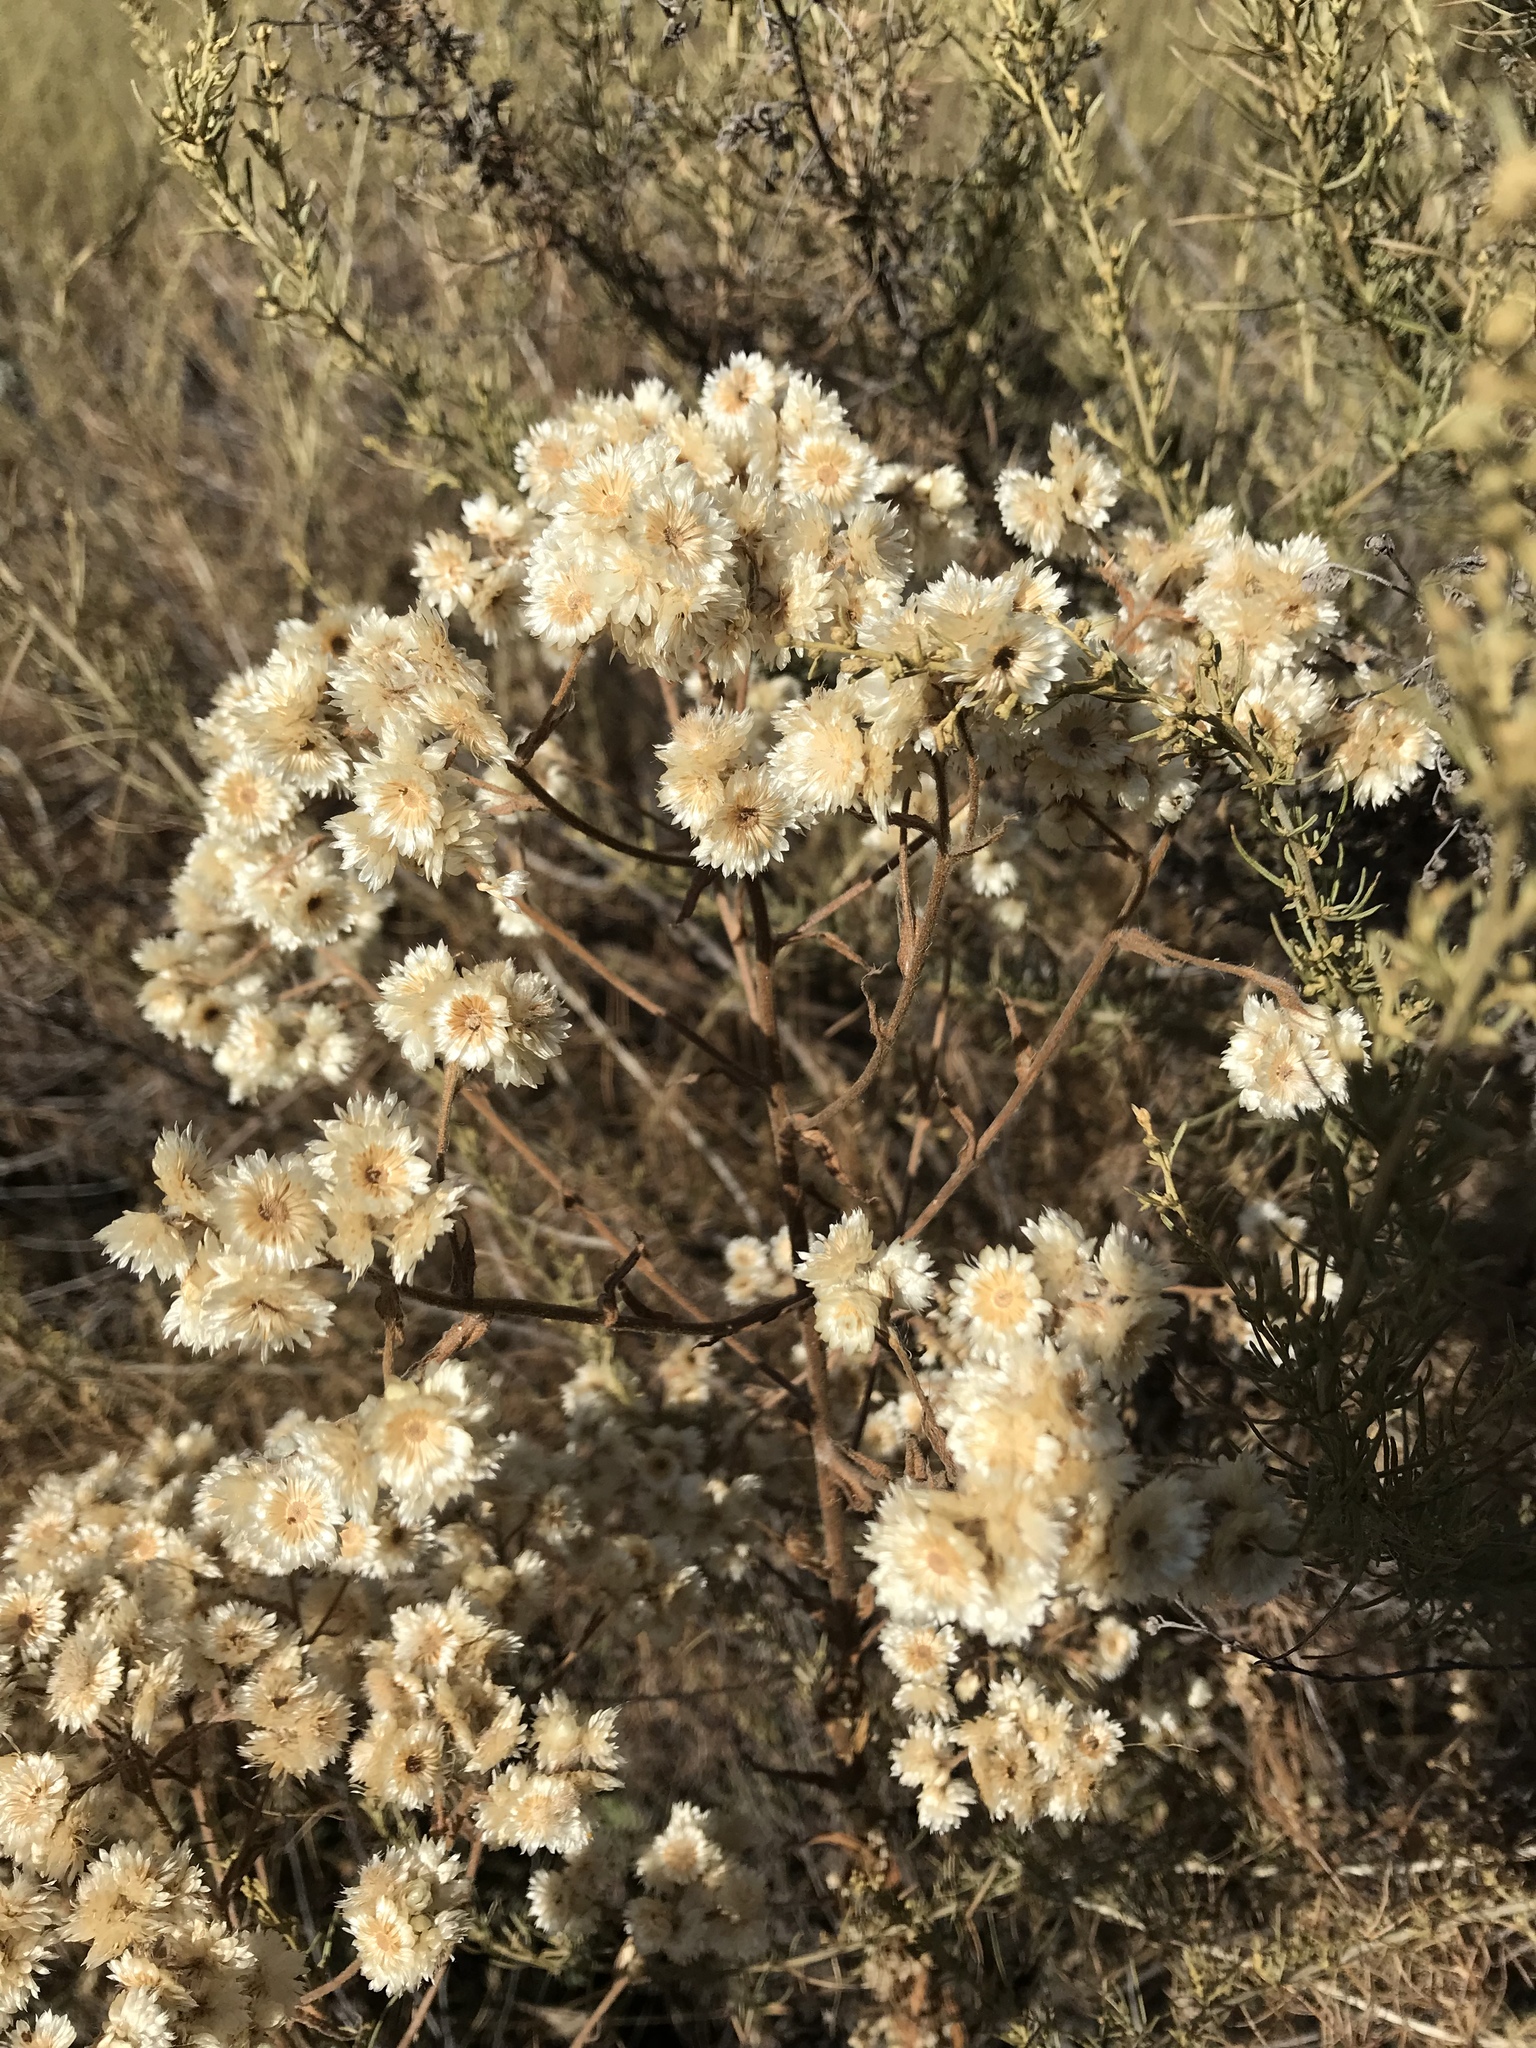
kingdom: Plantae
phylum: Tracheophyta
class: Magnoliopsida
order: Asterales
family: Asteraceae
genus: Pseudognaphalium
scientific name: Pseudognaphalium californicum
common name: California rabbit-tobacco
